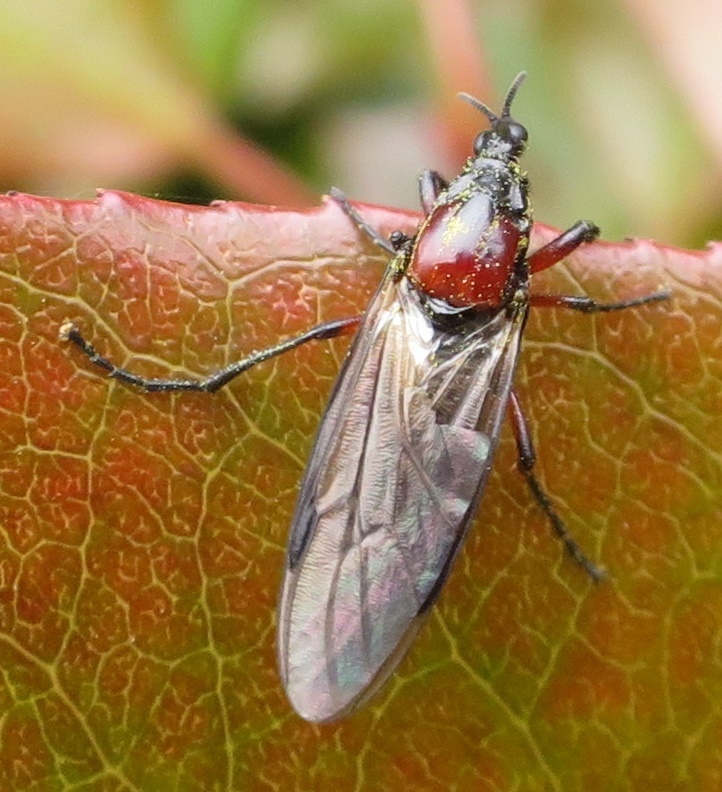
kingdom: Animalia
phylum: Arthropoda
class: Insecta
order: Diptera
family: Bibionidae
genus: Dilophus
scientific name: Dilophus nigrostigma
